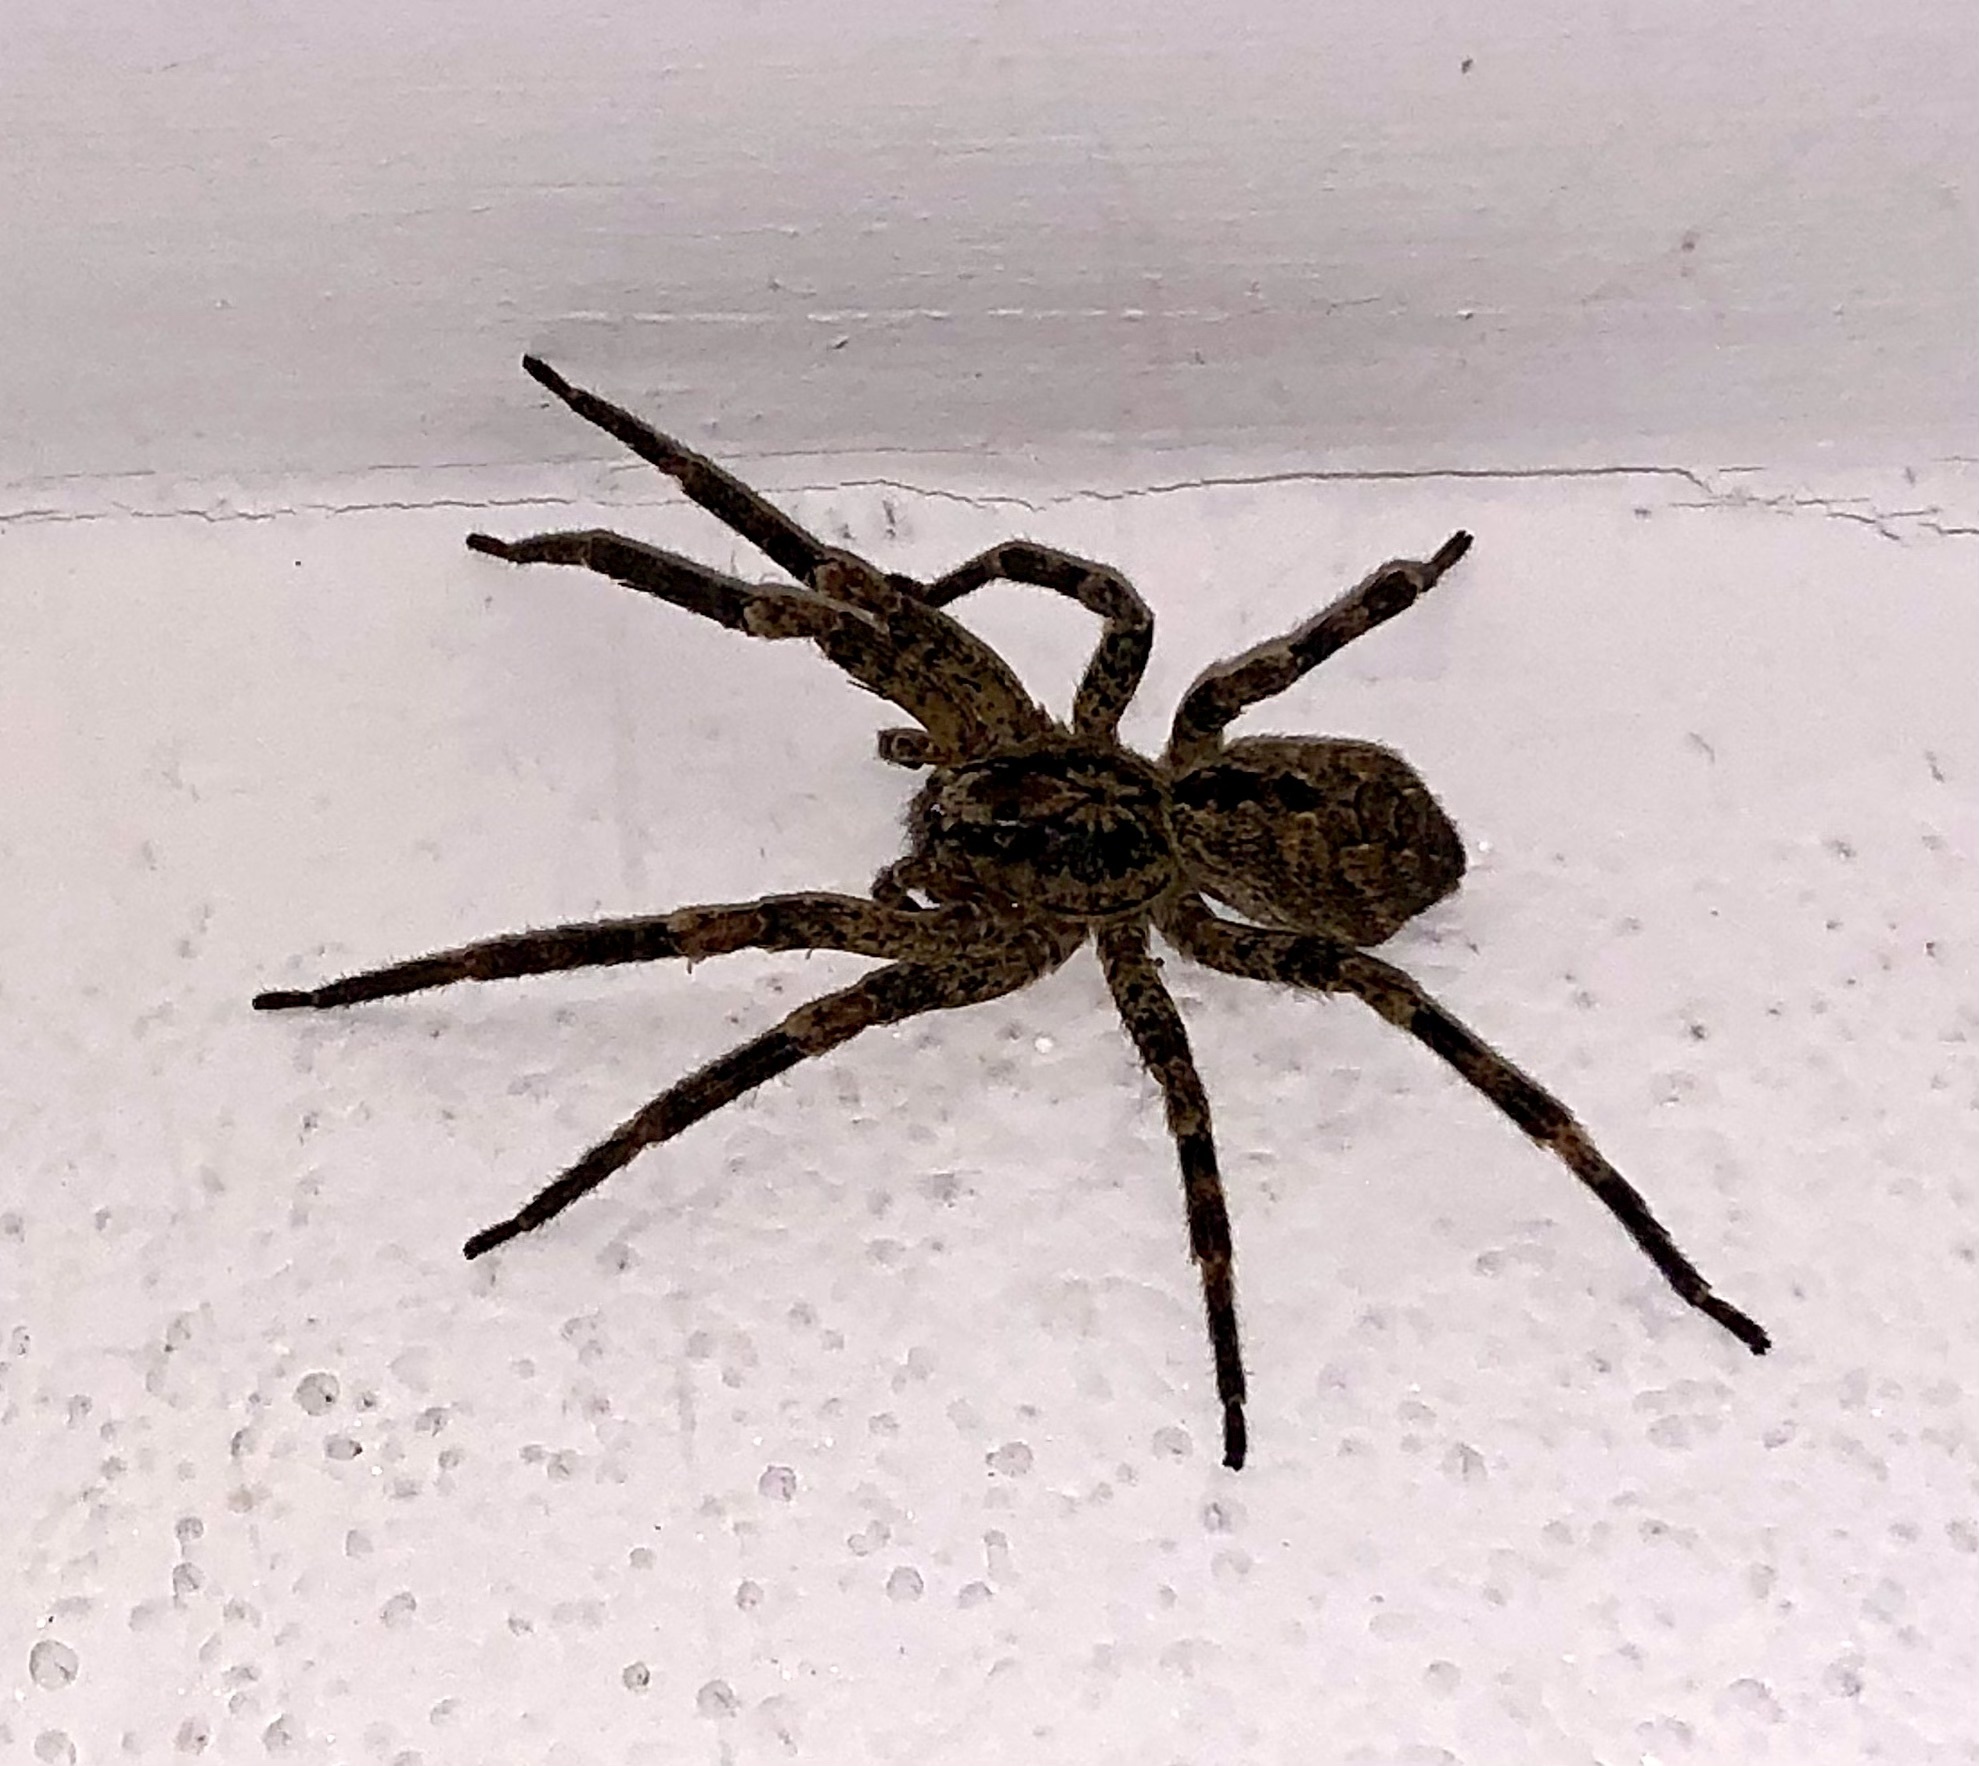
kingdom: Animalia
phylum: Arthropoda
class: Arachnida
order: Araneae
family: Zoropsidae
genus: Zoropsis
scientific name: Zoropsis spinimana
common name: Zoropsid spider
